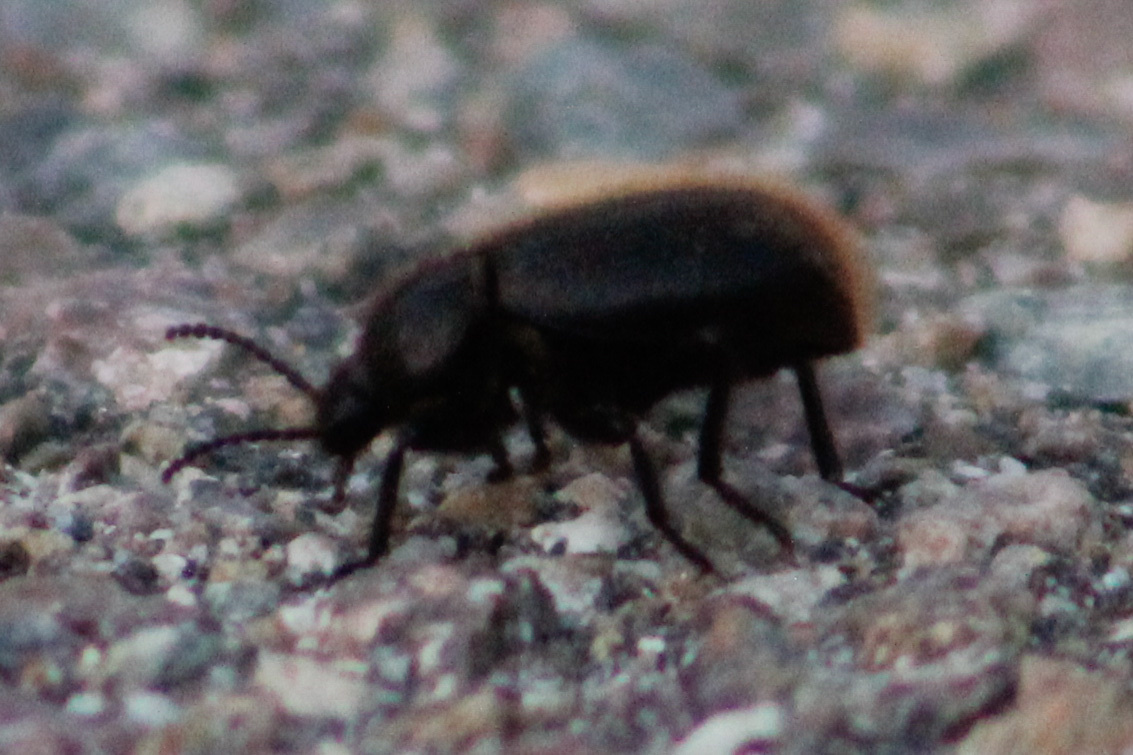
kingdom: Animalia
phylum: Arthropoda
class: Insecta
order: Coleoptera
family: Tenebrionidae
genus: Eleodes
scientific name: Eleodes osculans
